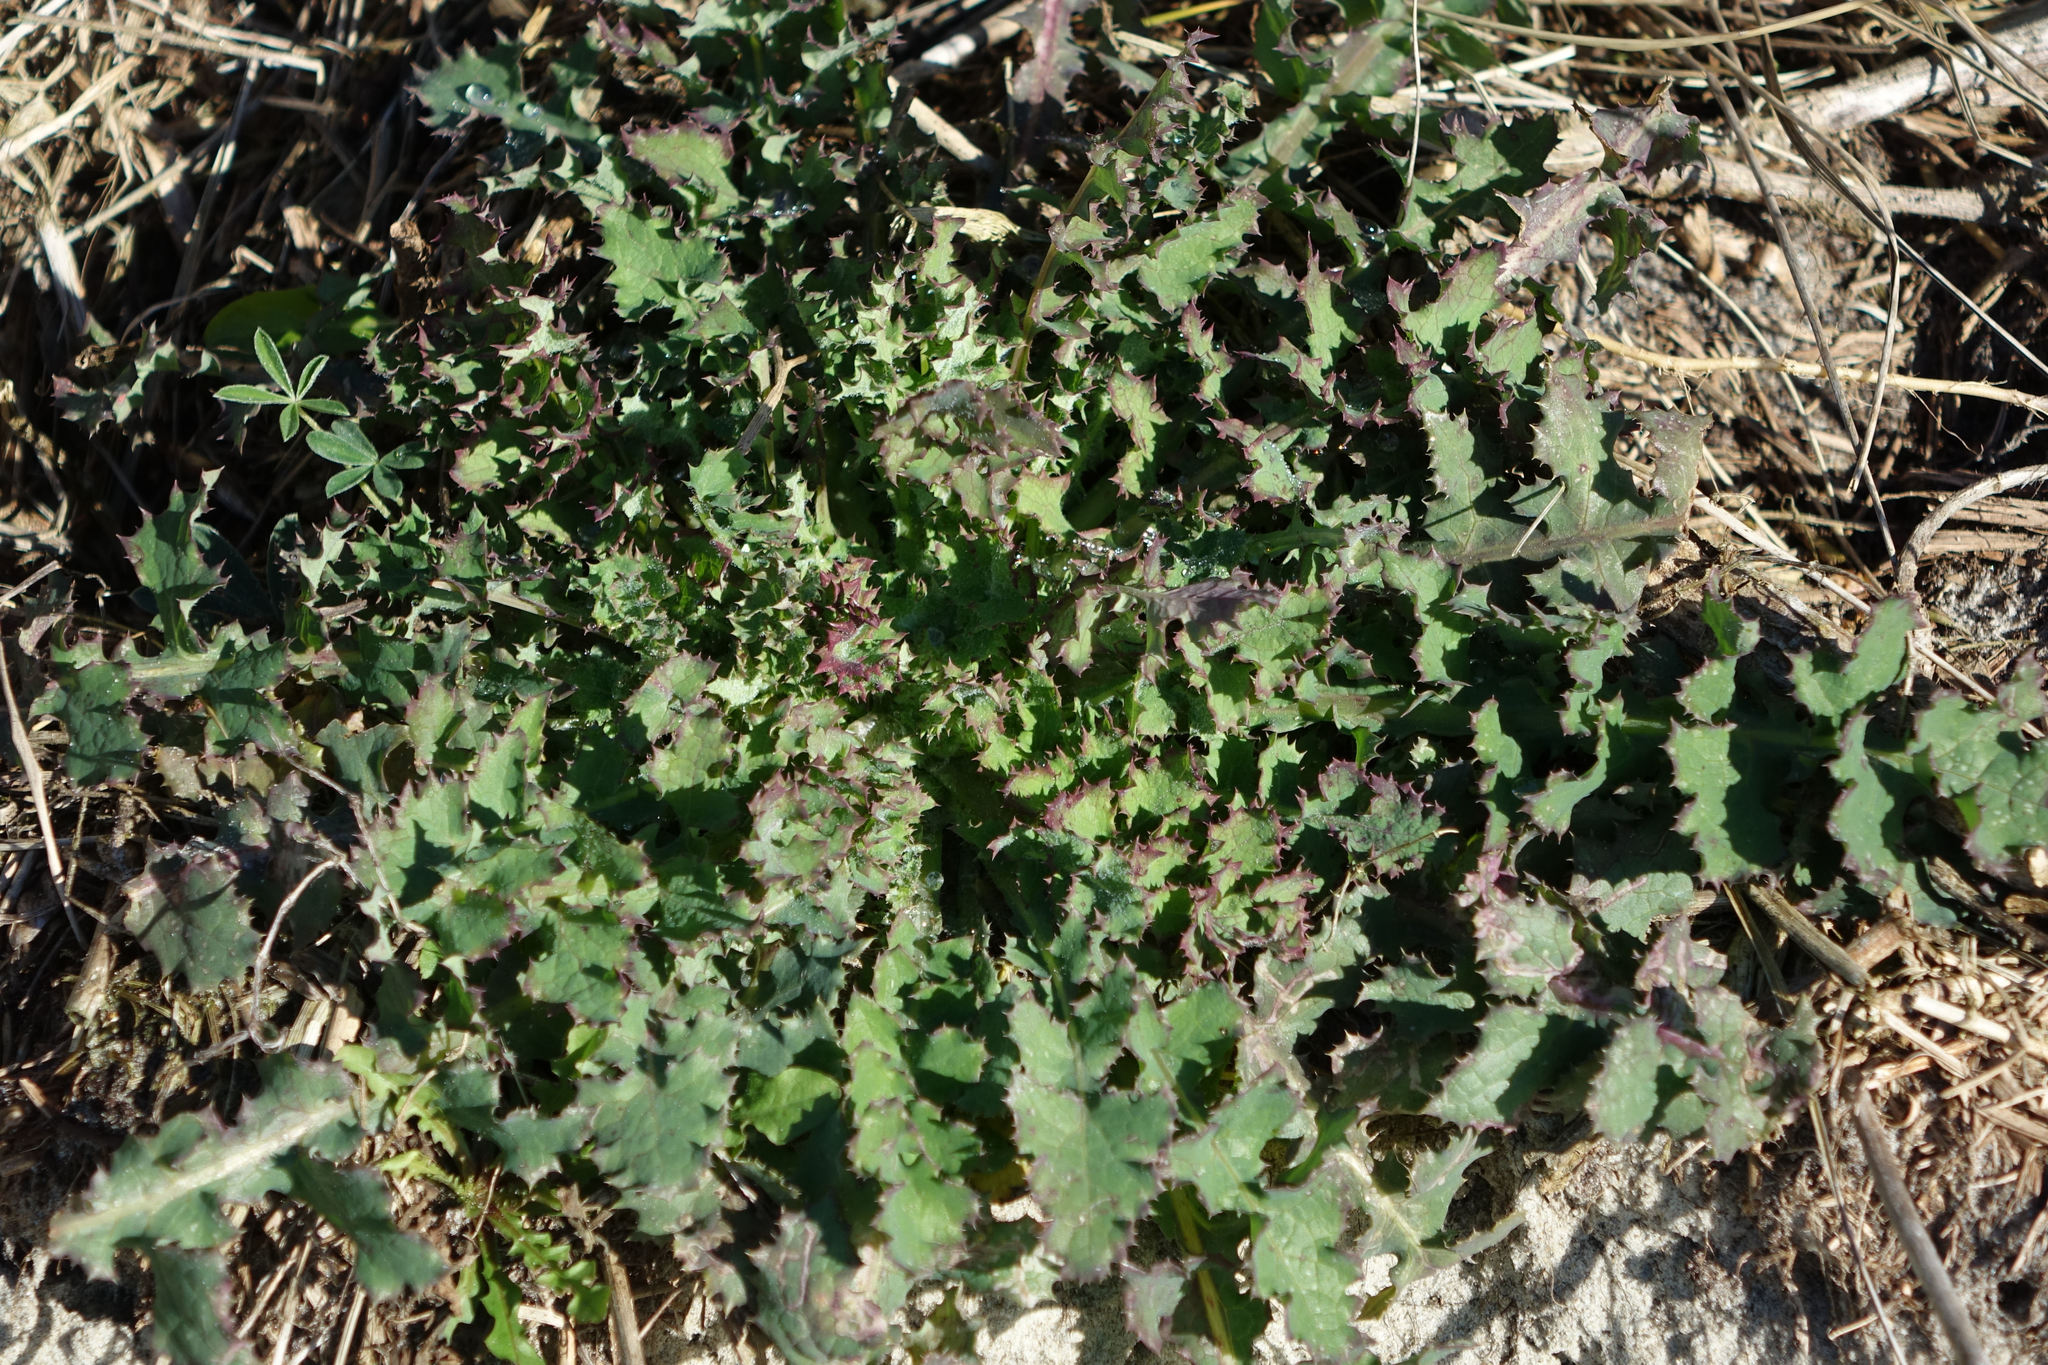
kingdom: Plantae
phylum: Tracheophyta
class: Magnoliopsida
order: Asterales
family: Asteraceae
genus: Sonchus
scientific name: Sonchus oleraceus
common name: Common sowthistle
